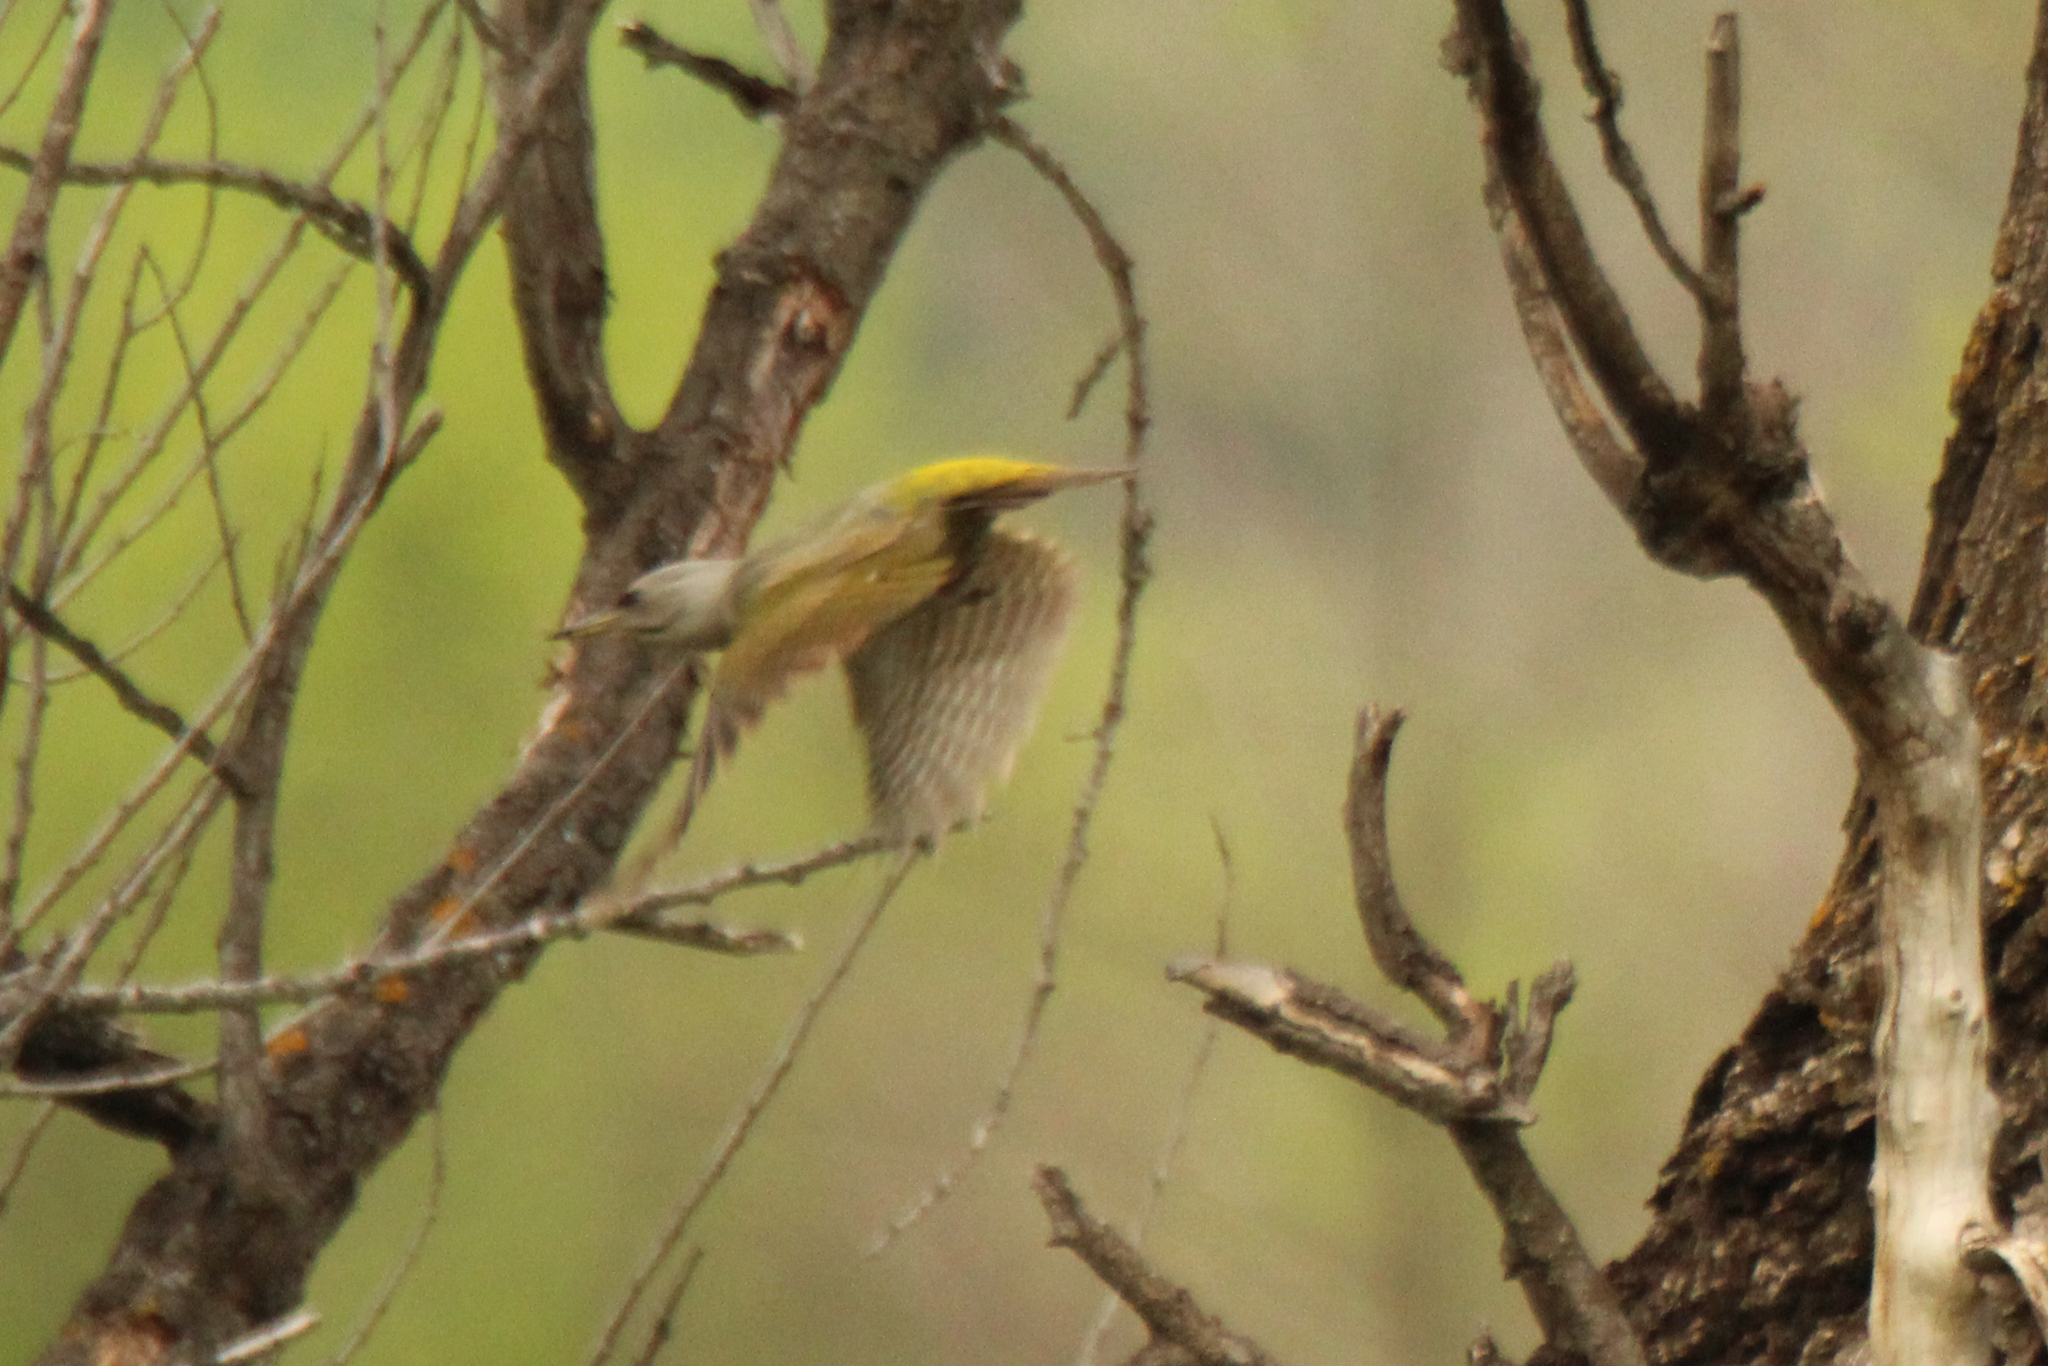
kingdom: Animalia
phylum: Chordata
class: Aves
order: Piciformes
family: Picidae
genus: Picus
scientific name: Picus canus
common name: Grey-headed woodpecker
